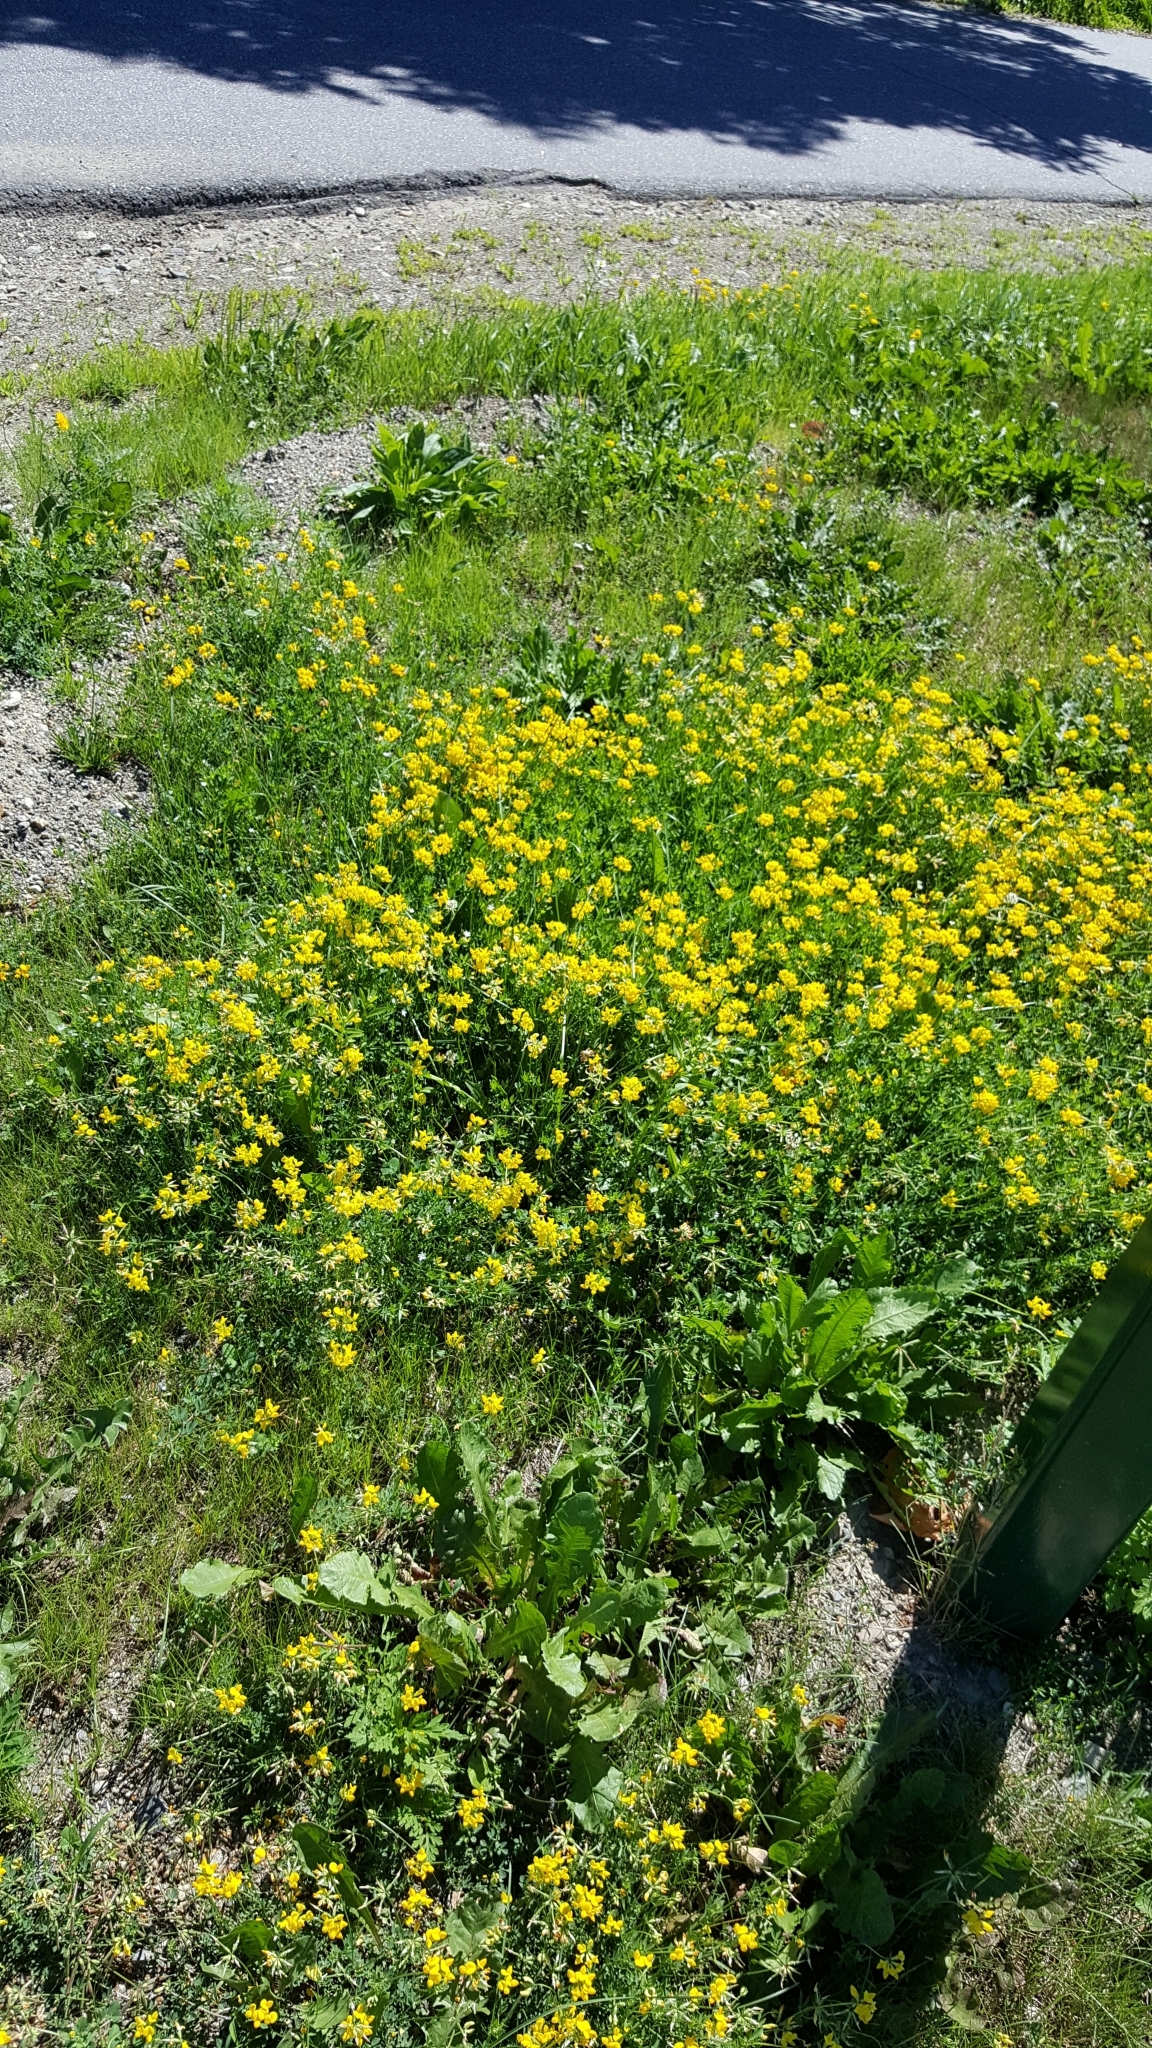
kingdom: Plantae
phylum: Tracheophyta
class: Magnoliopsida
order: Fabales
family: Fabaceae
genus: Lotus
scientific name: Lotus corniculatus
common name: Common bird's-foot-trefoil
